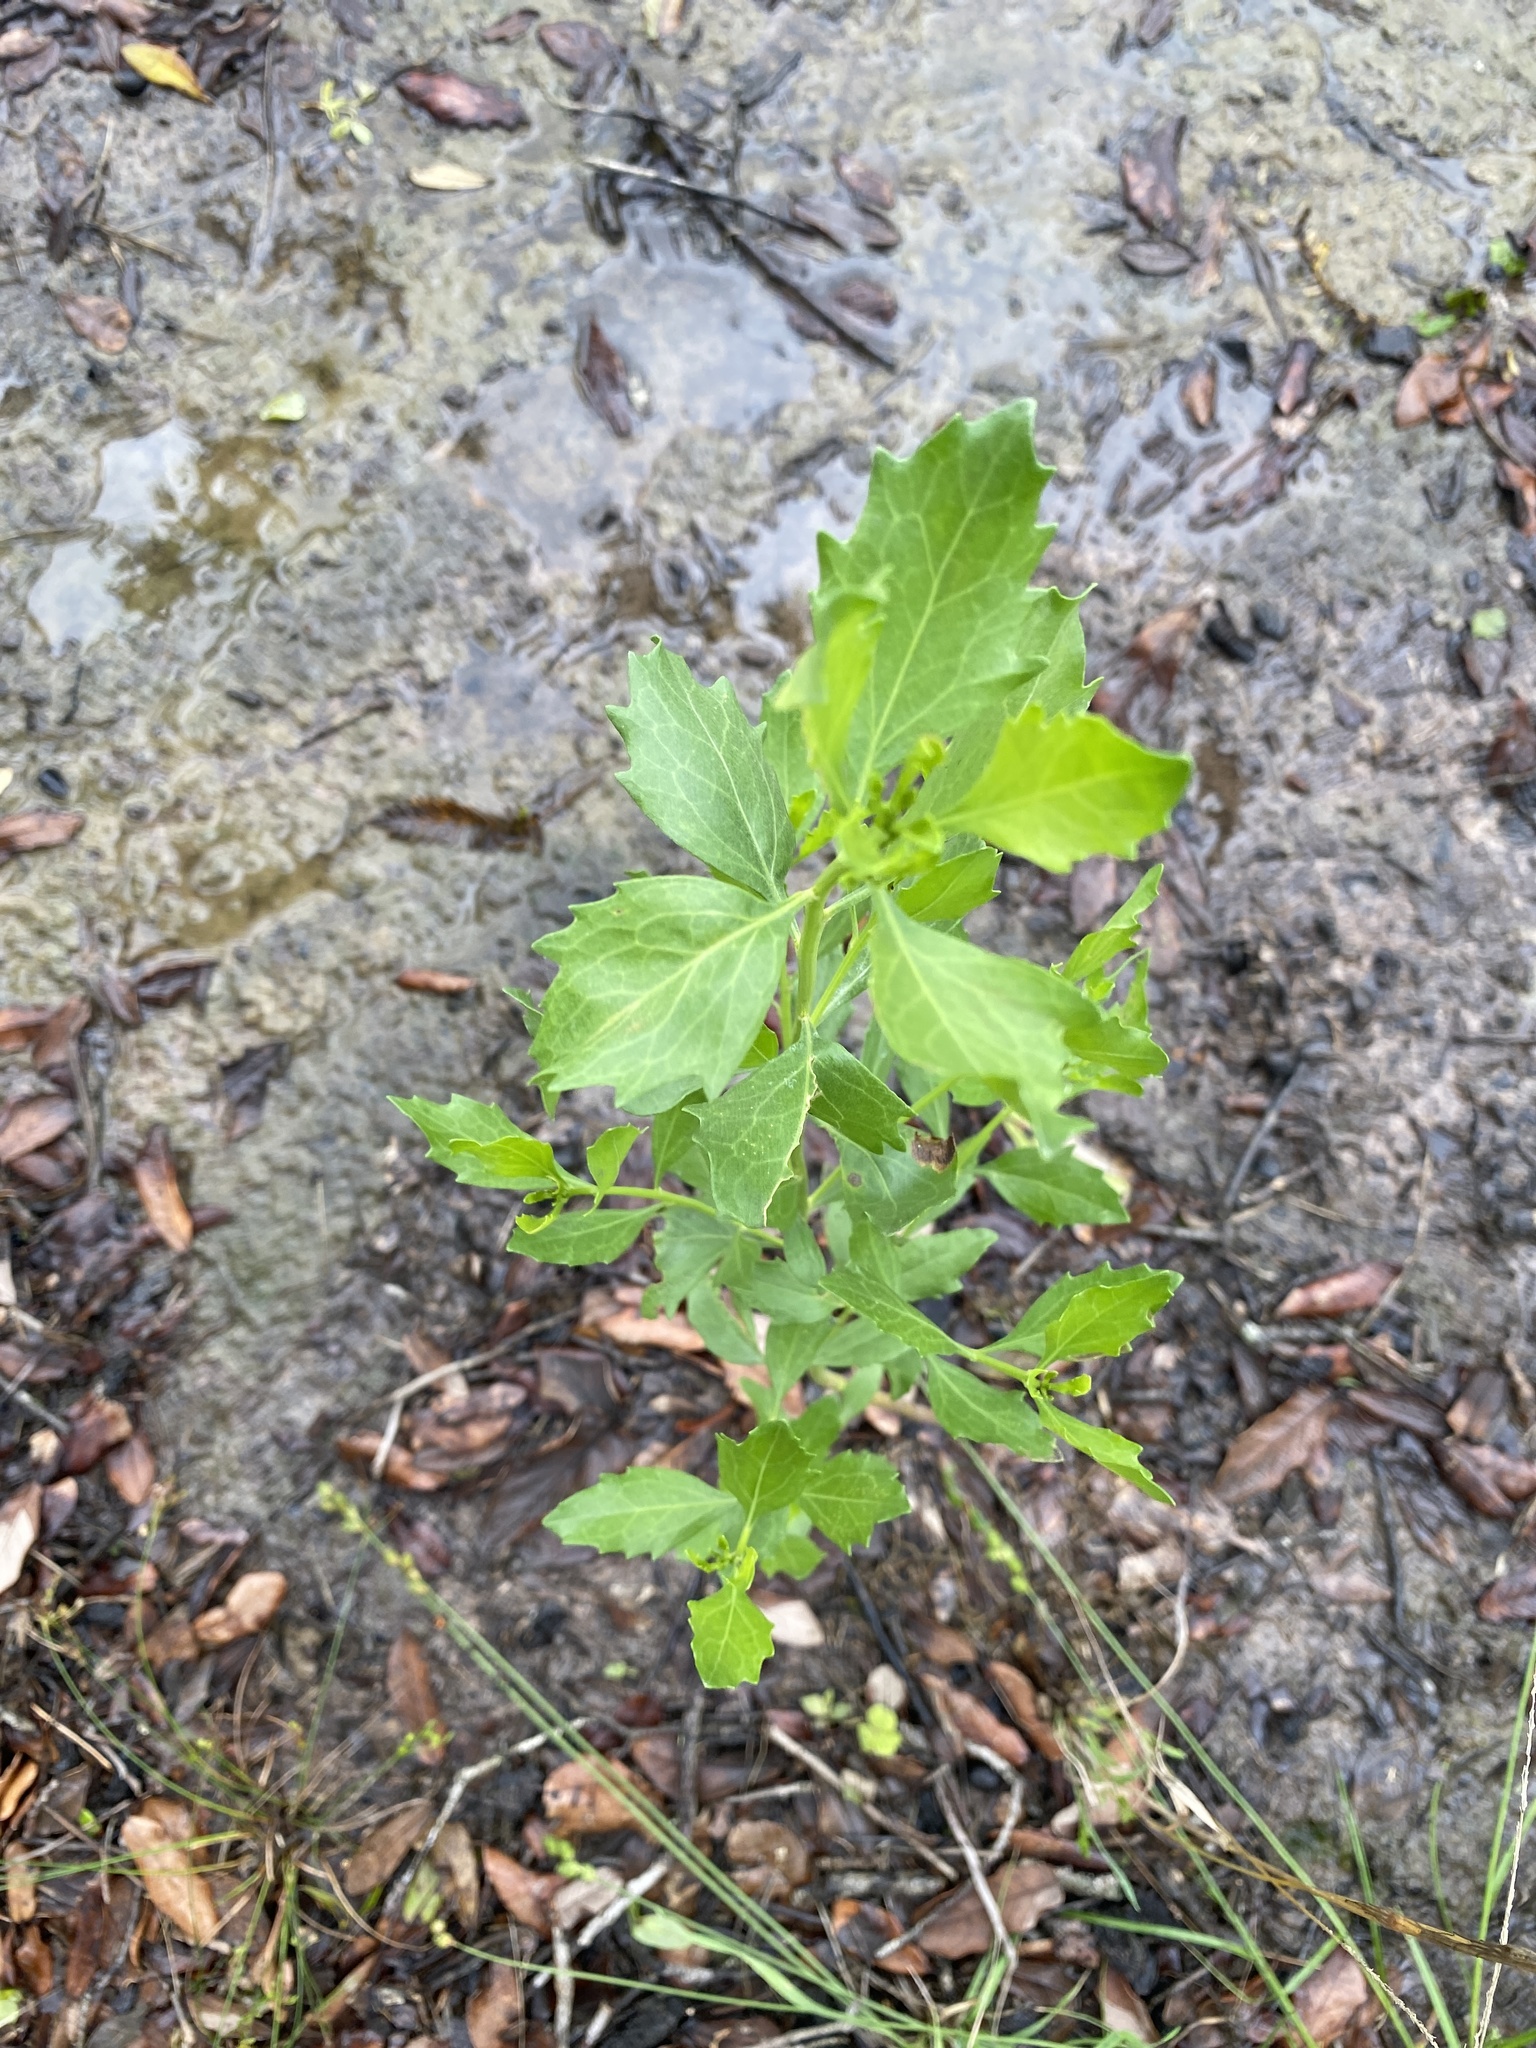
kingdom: Plantae
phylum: Tracheophyta
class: Magnoliopsida
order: Asterales
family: Asteraceae
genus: Baccharis
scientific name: Baccharis halimifolia
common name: Eastern baccharis
